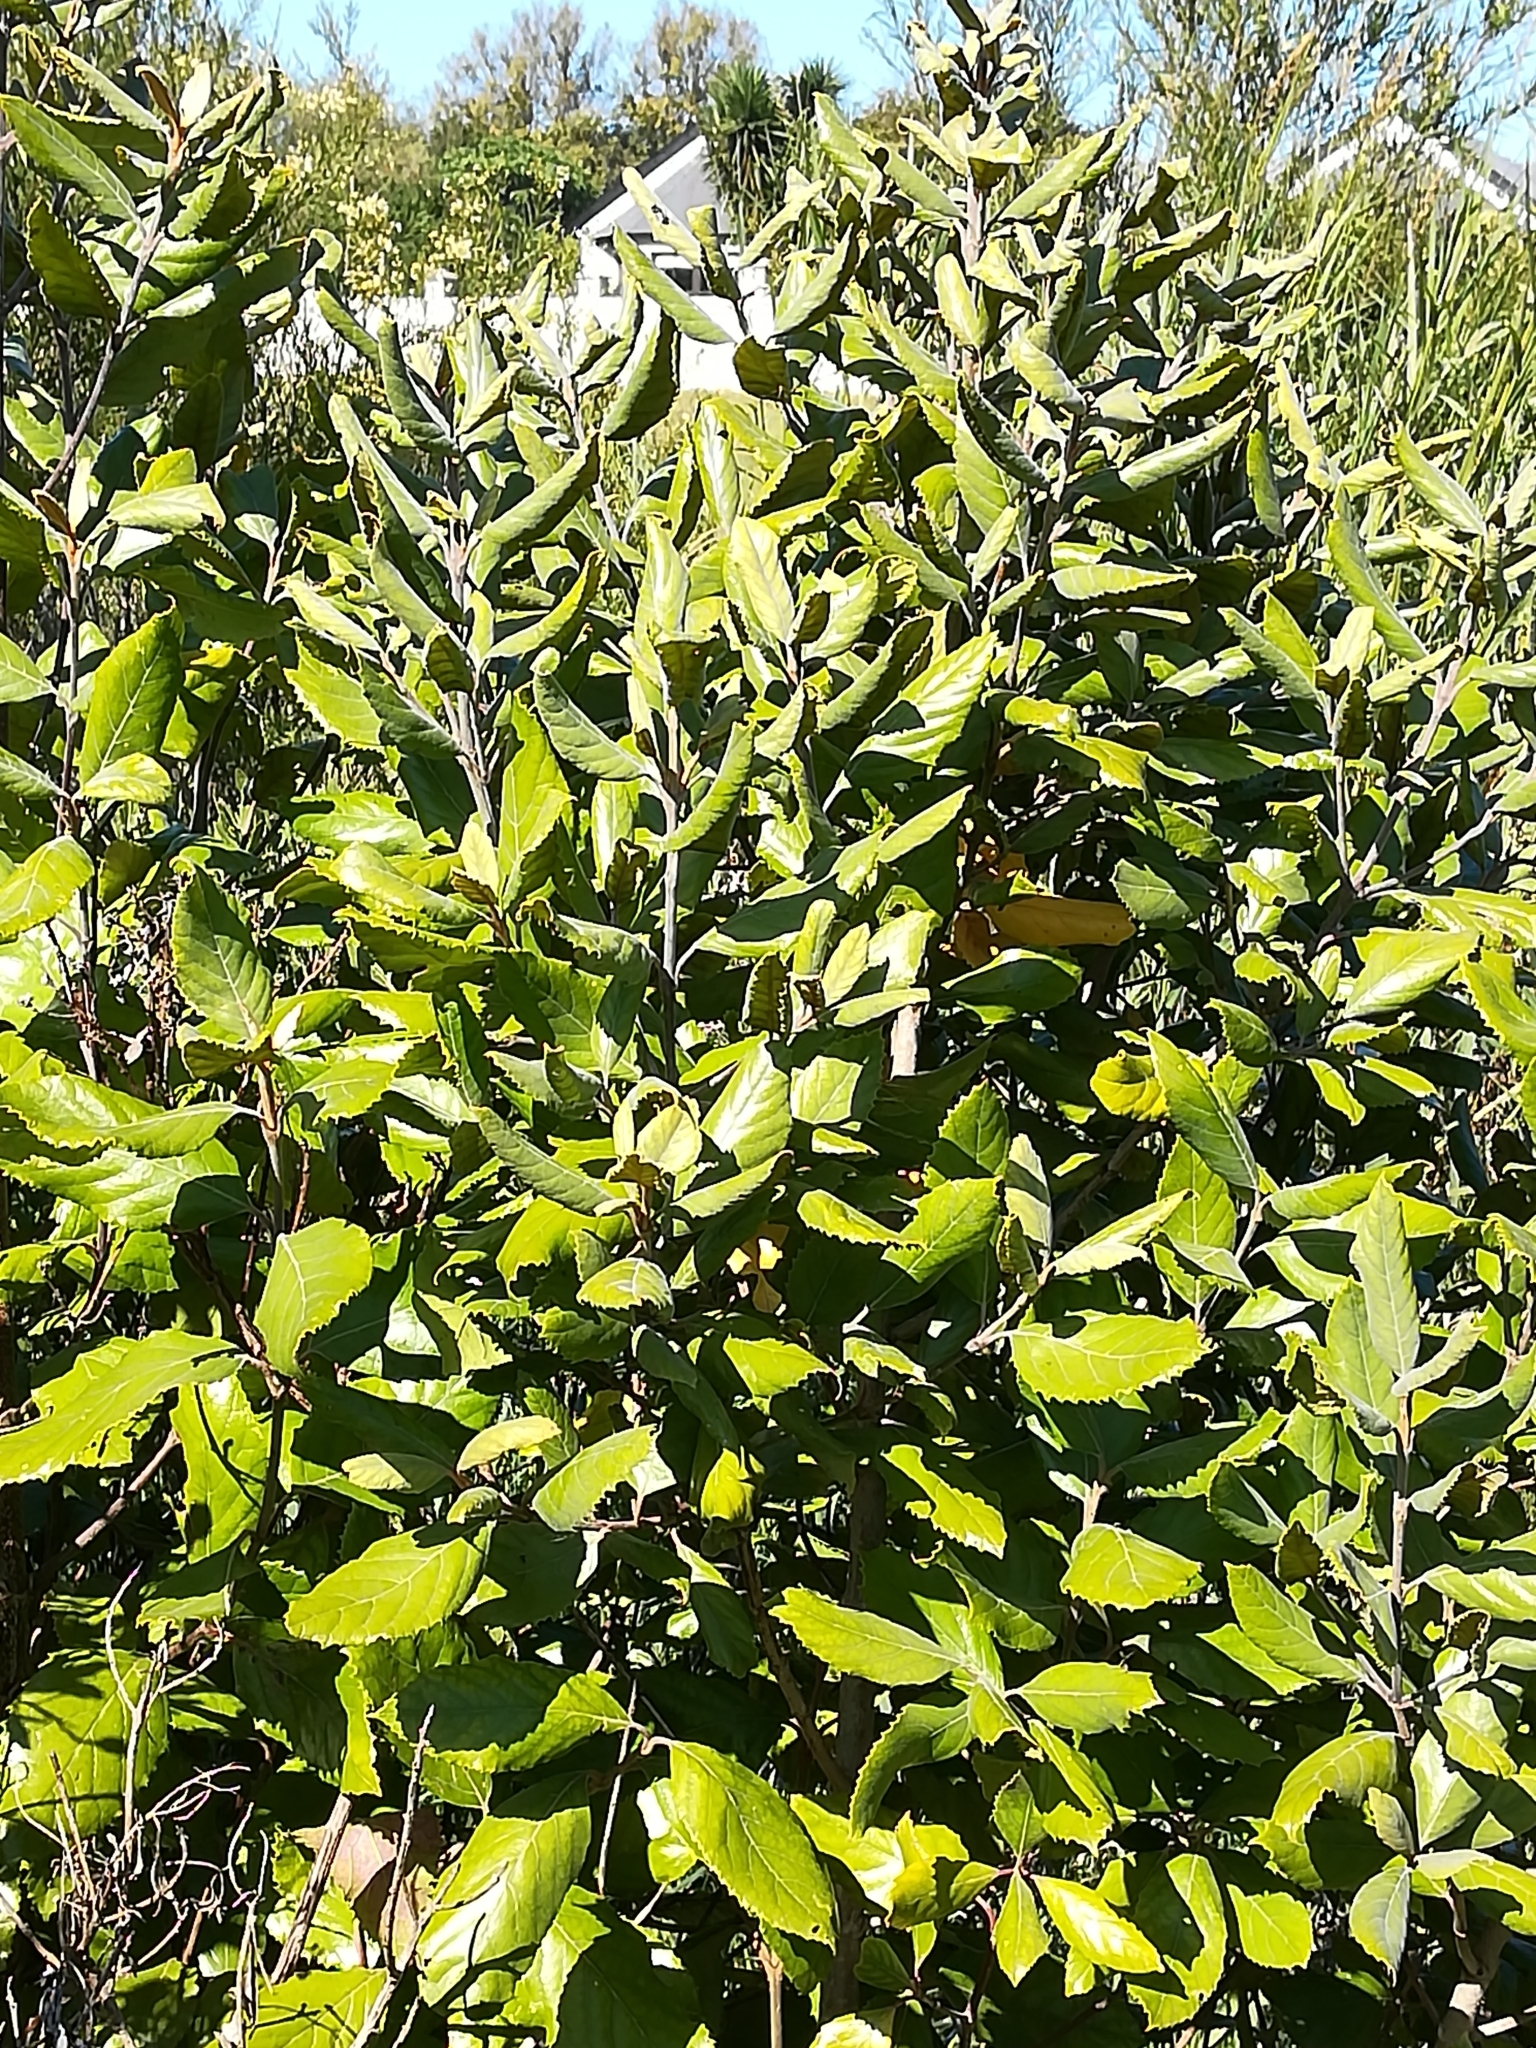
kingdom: Plantae
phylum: Tracheophyta
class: Magnoliopsida
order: Cornales
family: Curtisiaceae
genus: Curtisia
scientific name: Curtisia dentata
